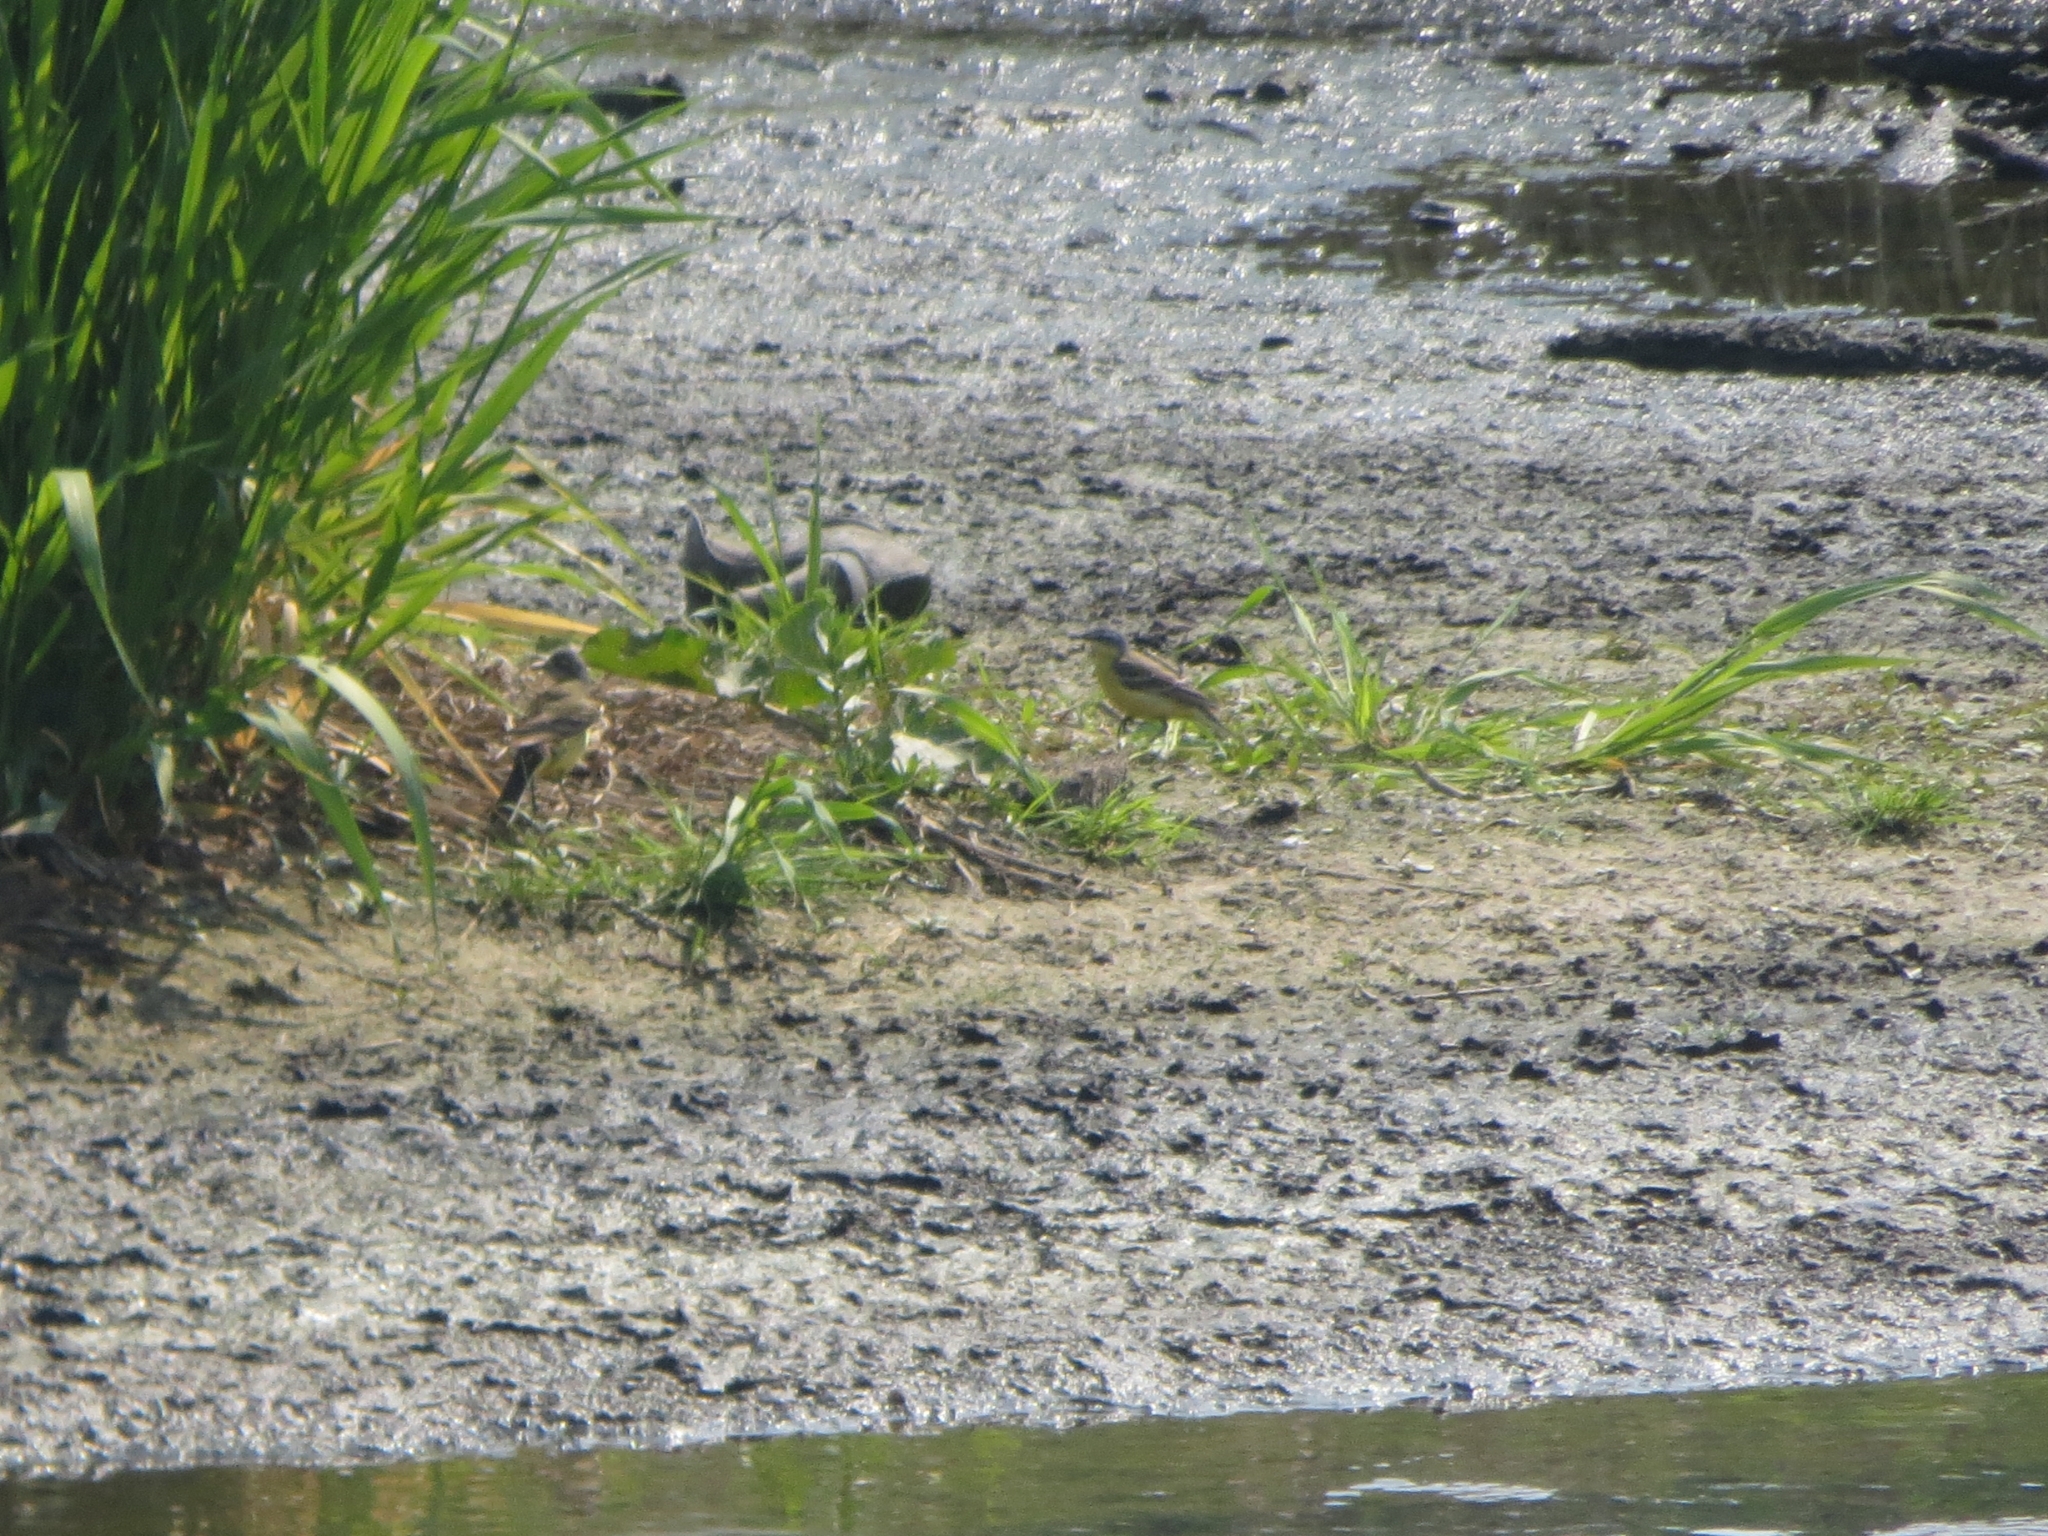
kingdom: Animalia
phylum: Chordata
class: Aves
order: Passeriformes
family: Motacillidae
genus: Motacilla
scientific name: Motacilla flava
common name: Western yellow wagtail
